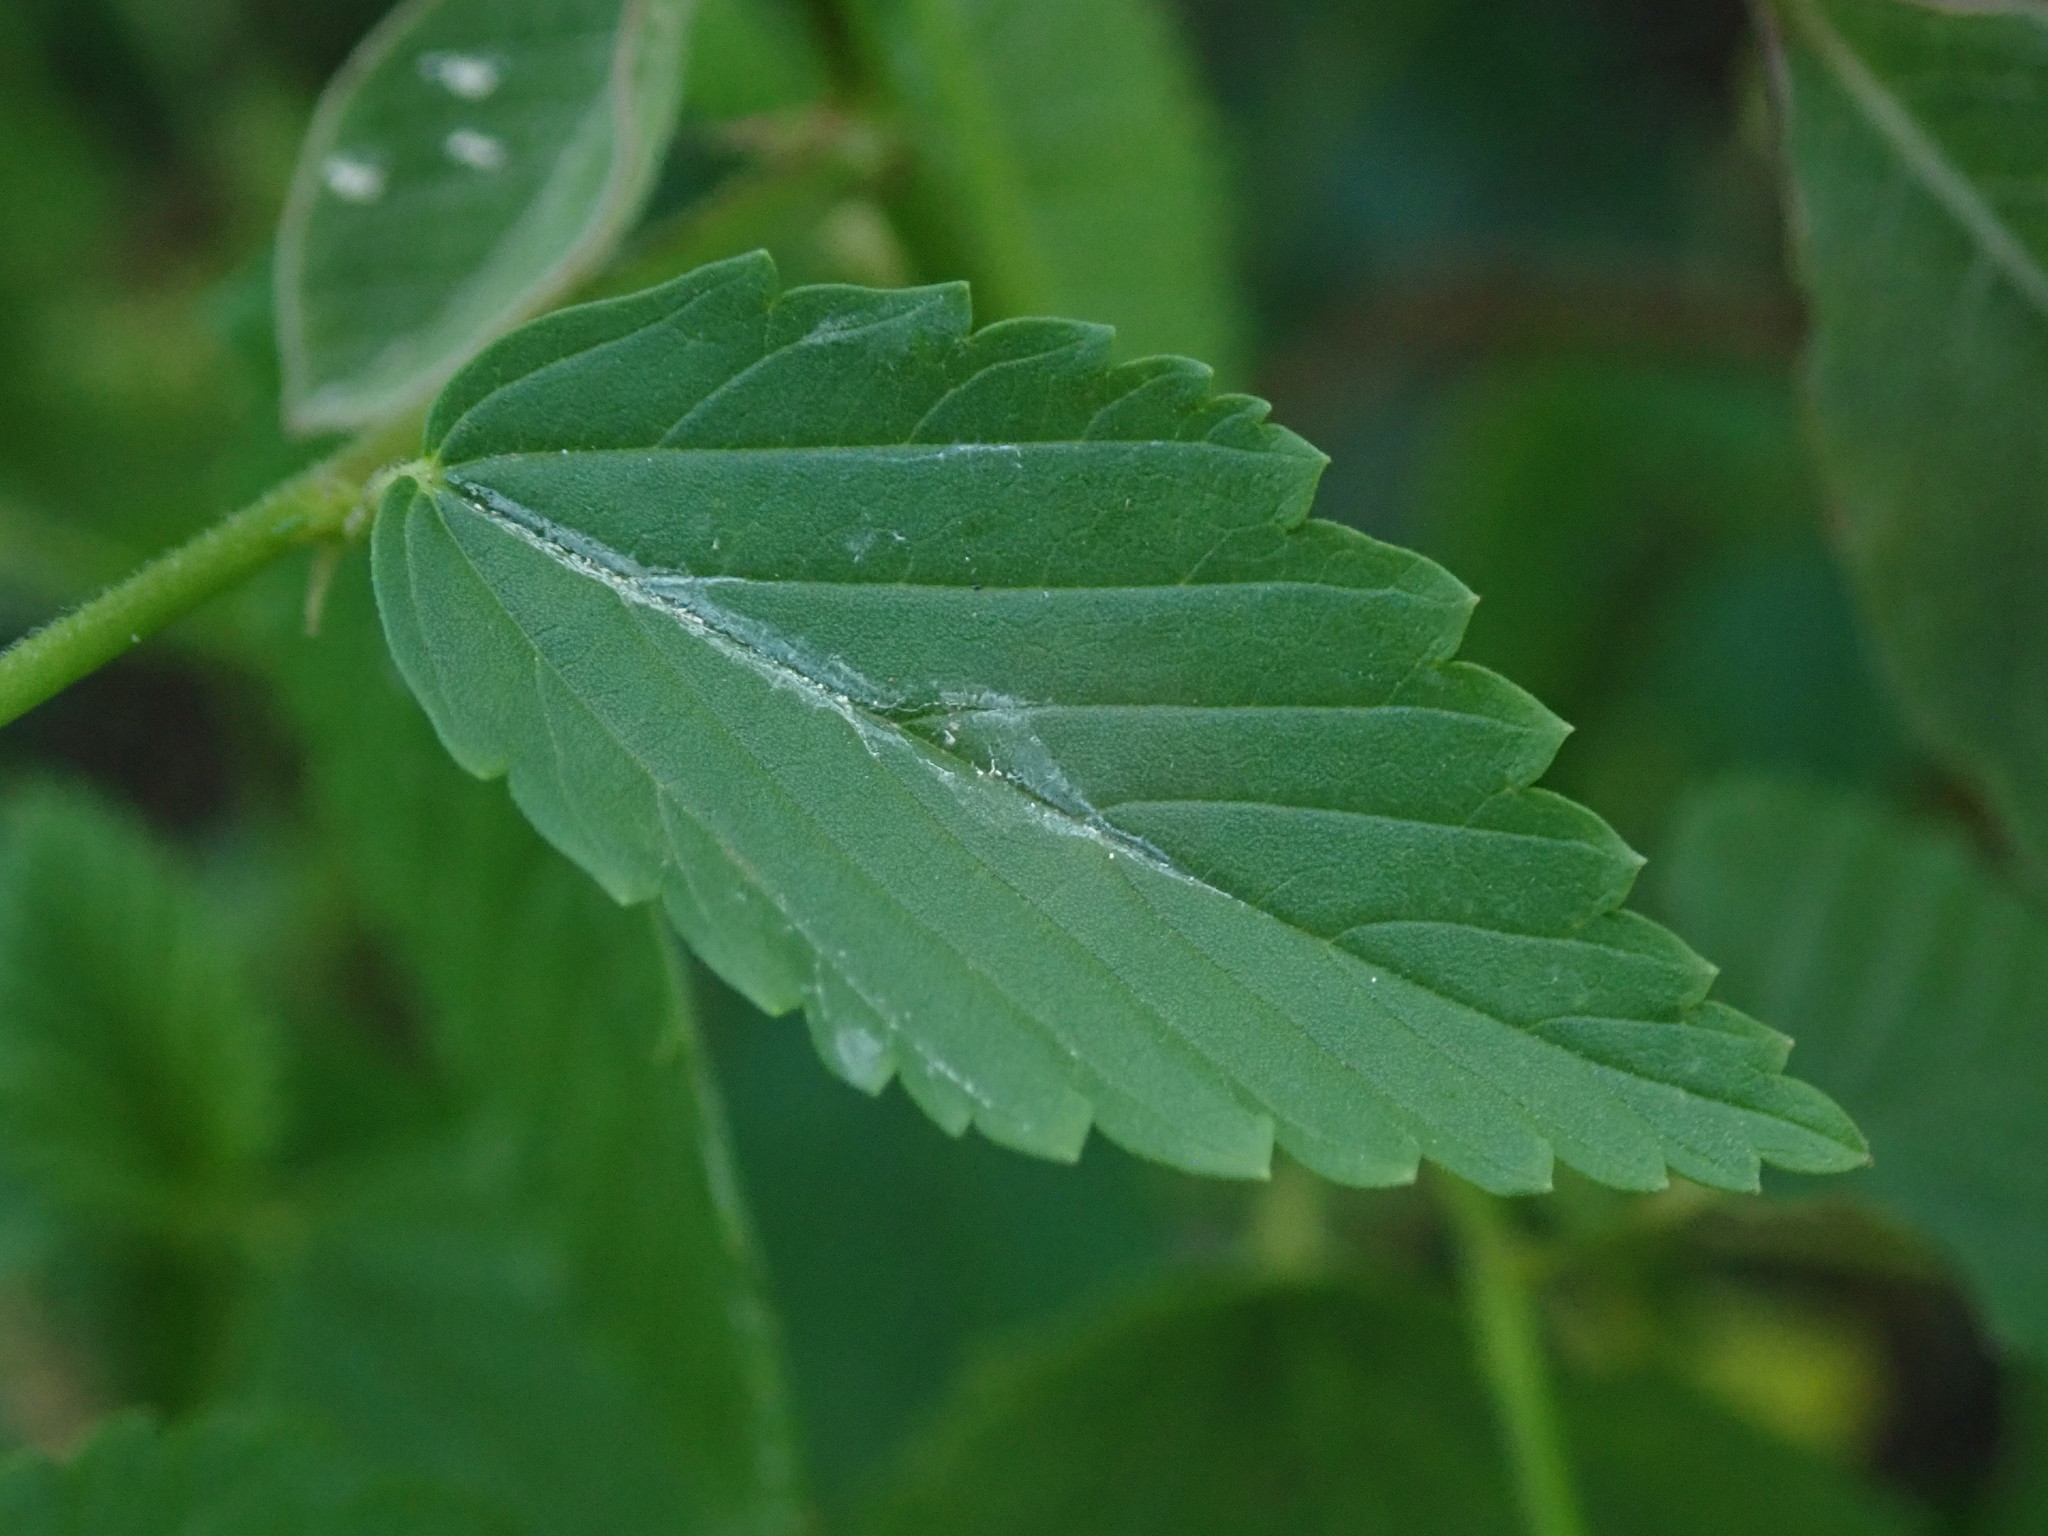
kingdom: Plantae
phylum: Tracheophyta
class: Magnoliopsida
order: Malvales
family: Malvaceae
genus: Melochia
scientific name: Melochia pyramidata
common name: Pyramidflower
